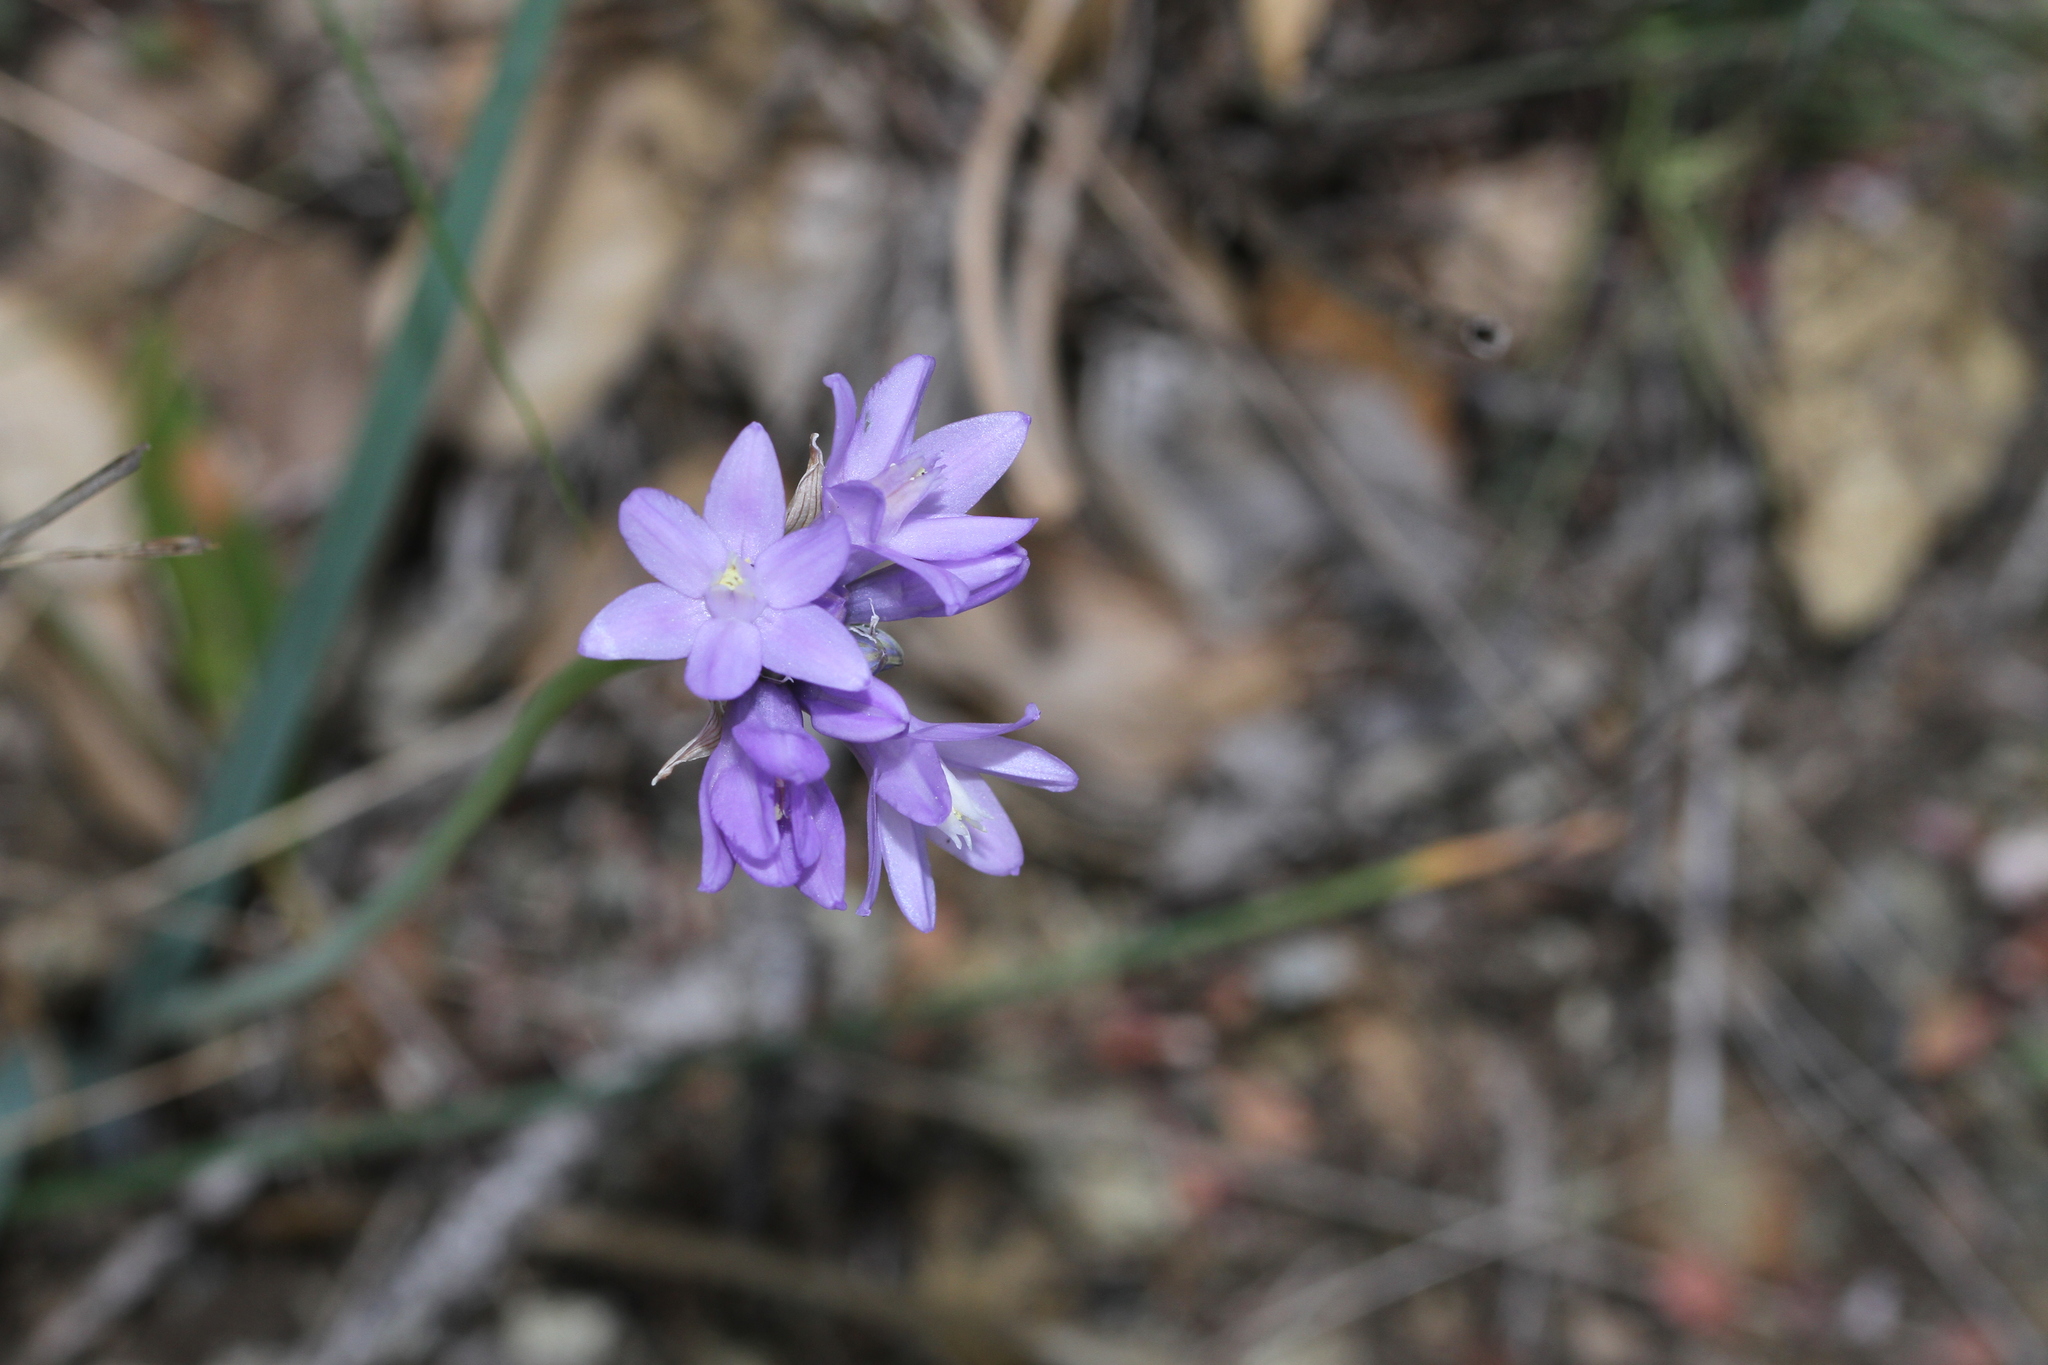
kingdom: Plantae
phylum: Tracheophyta
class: Liliopsida
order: Asparagales
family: Asparagaceae
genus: Dipterostemon
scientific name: Dipterostemon capitatus
